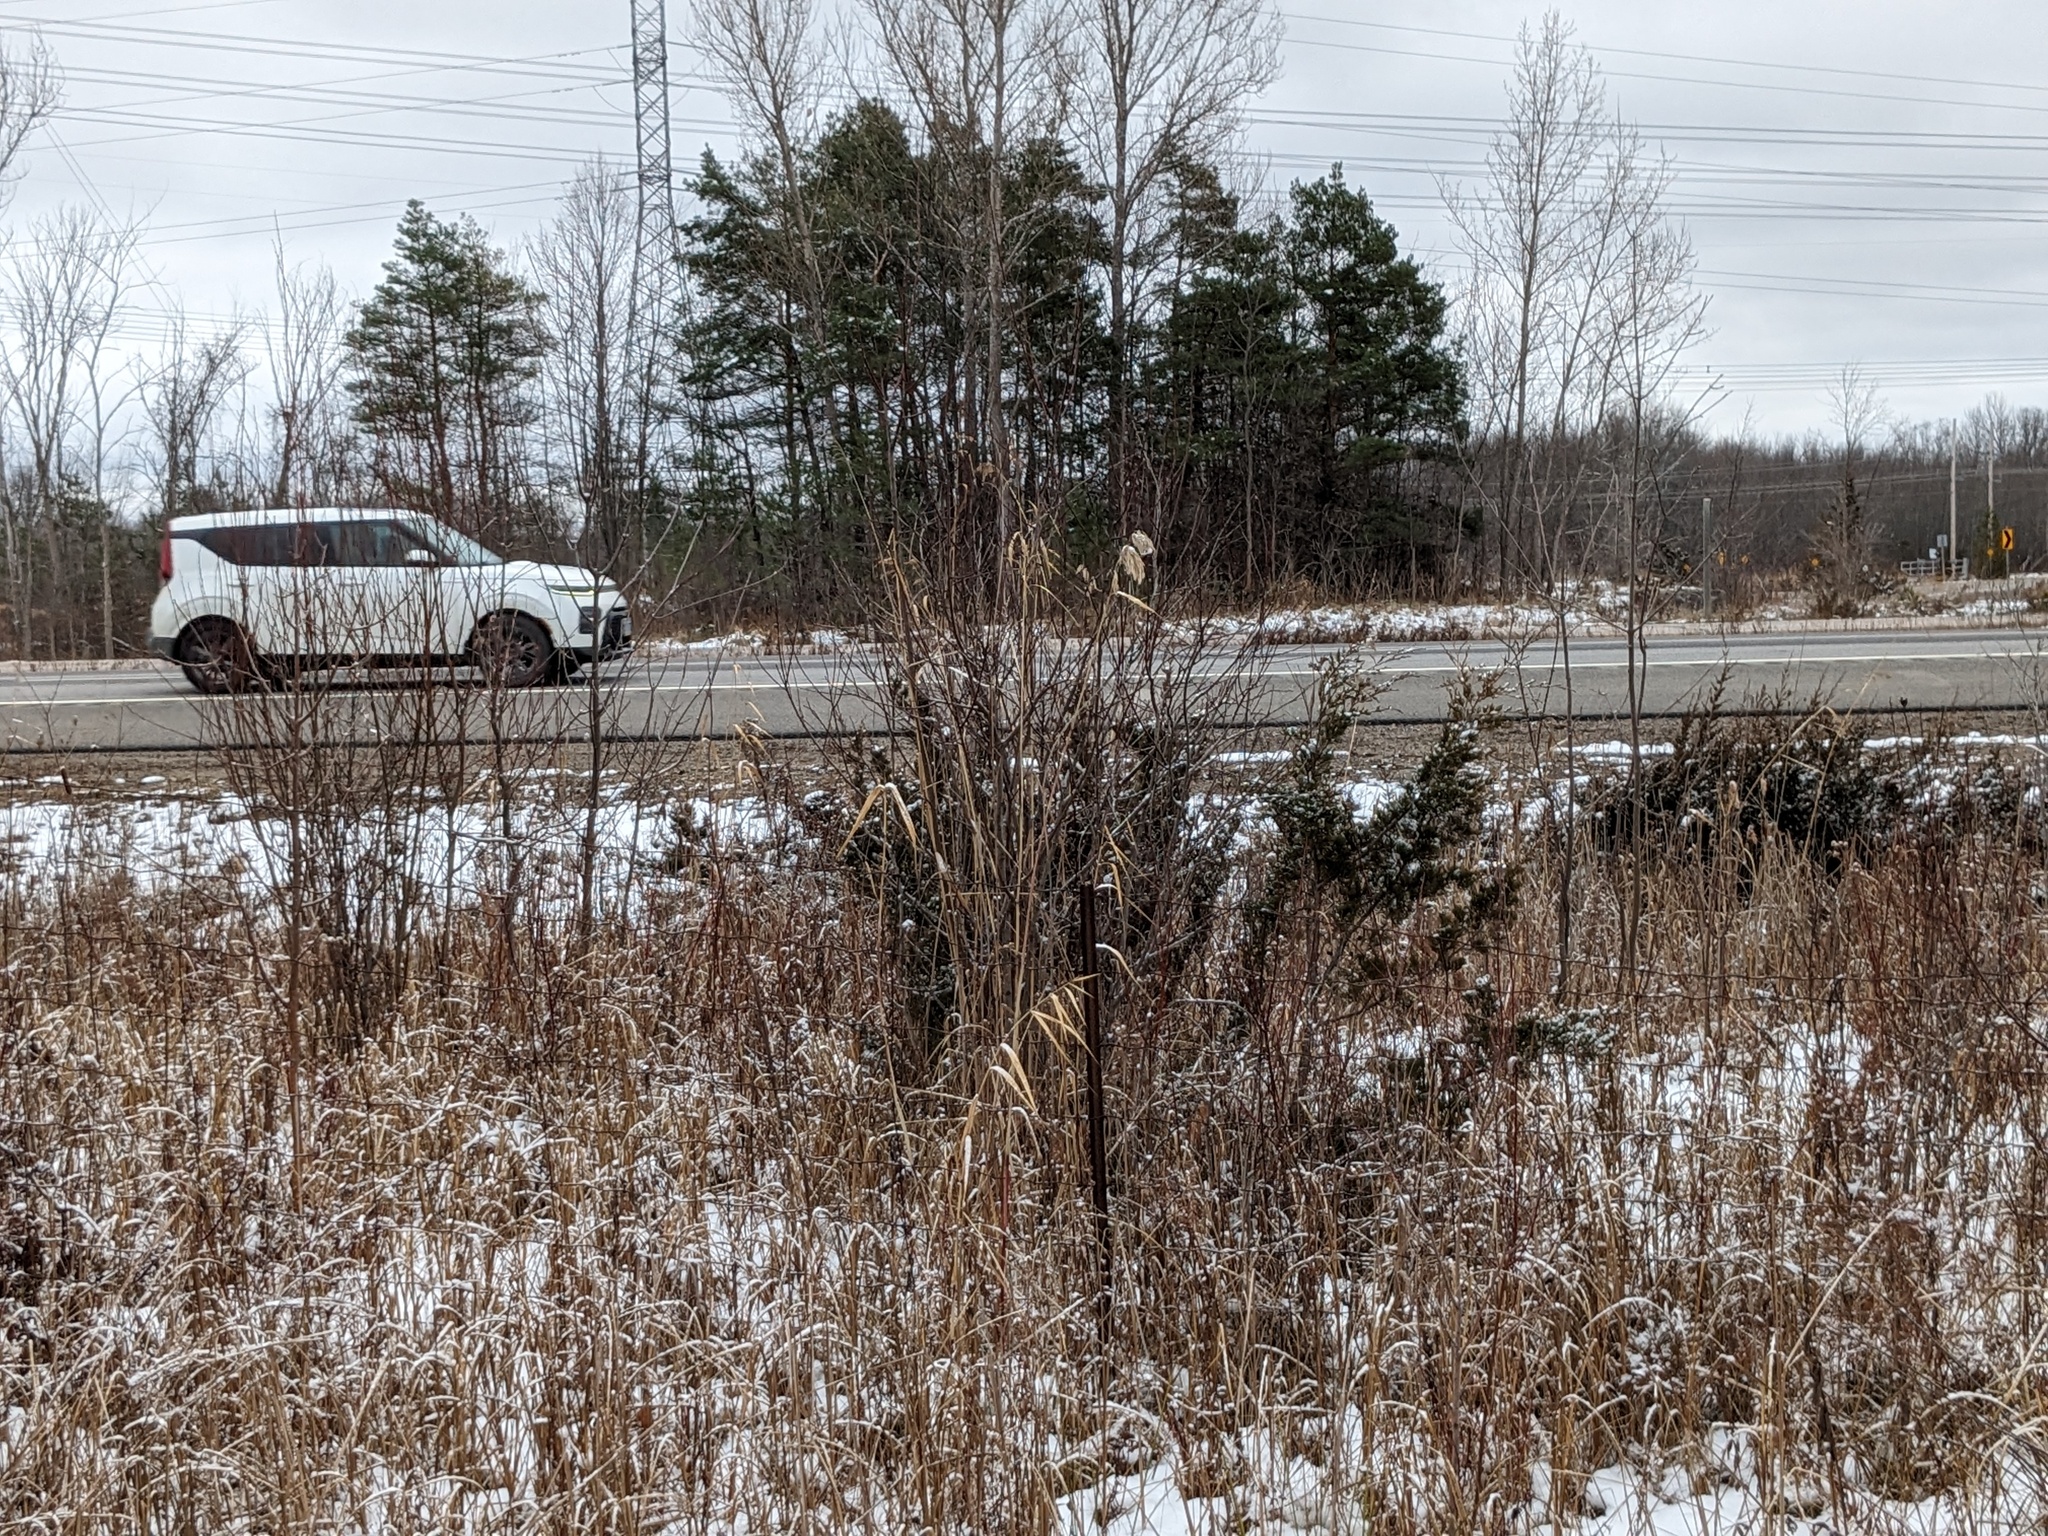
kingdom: Plantae
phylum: Tracheophyta
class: Liliopsida
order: Poales
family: Poaceae
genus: Phragmites
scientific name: Phragmites australis
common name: Common reed
